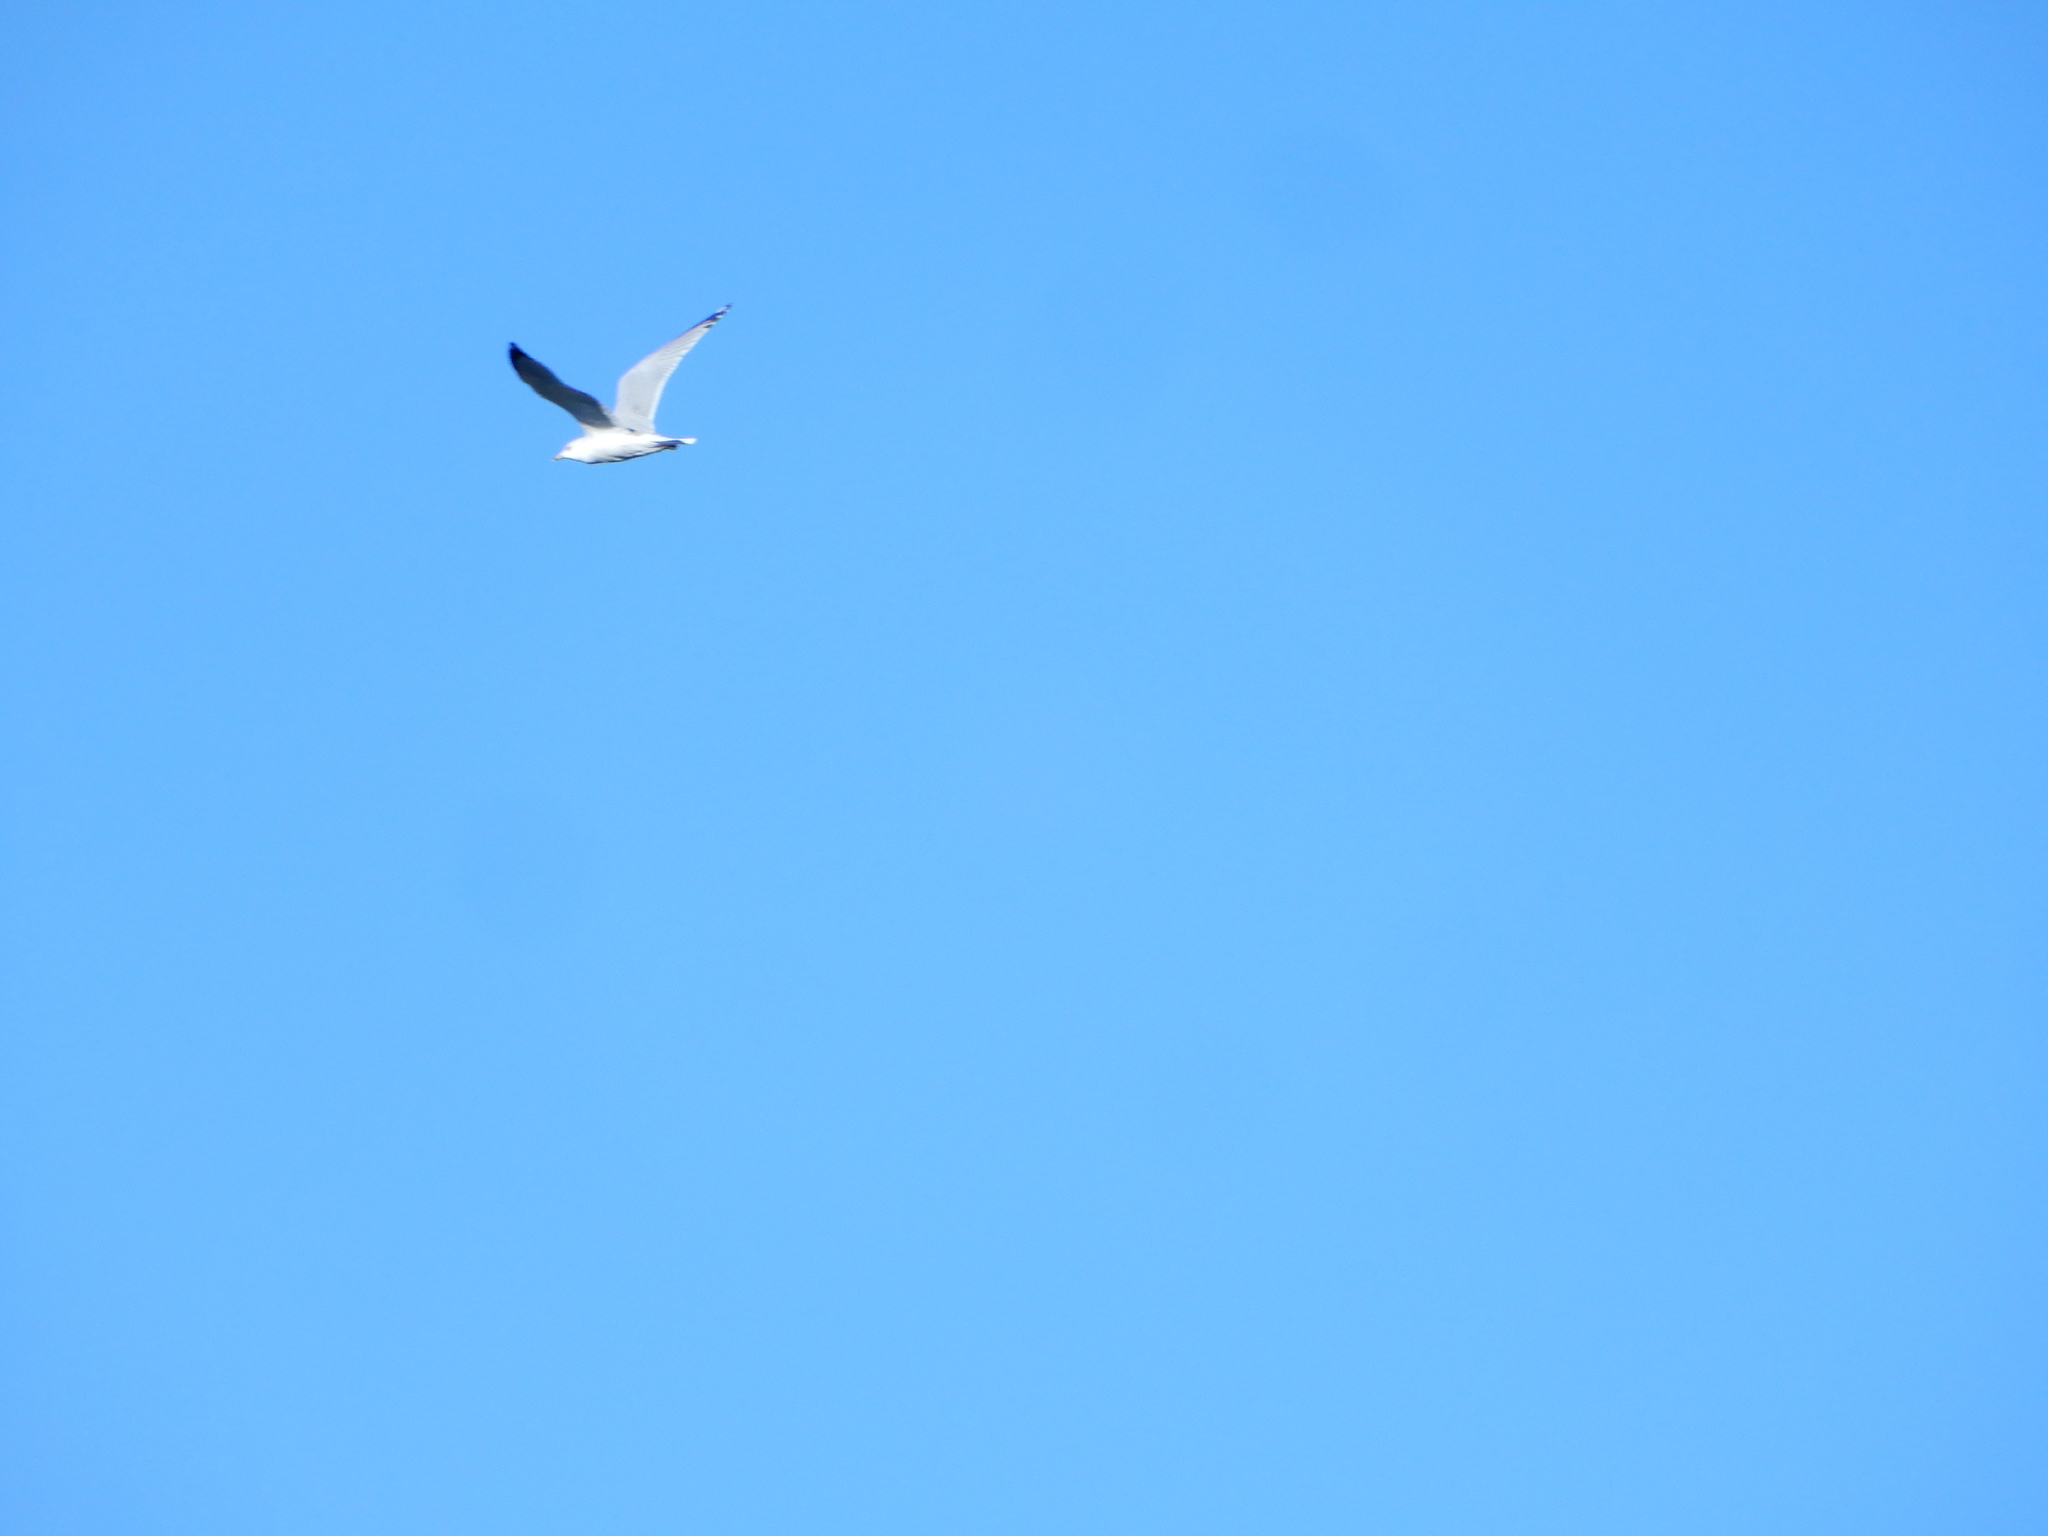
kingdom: Animalia
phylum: Chordata
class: Aves
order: Charadriiformes
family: Laridae
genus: Larus
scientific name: Larus delawarensis
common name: Ring-billed gull
